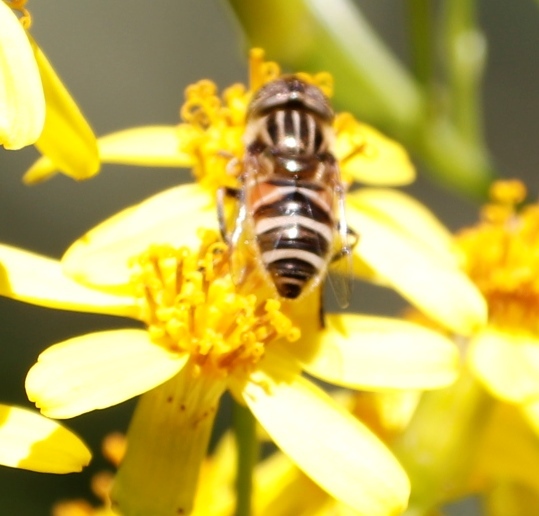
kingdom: Animalia
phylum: Arthropoda
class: Insecta
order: Diptera
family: Syrphidae
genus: Eristalinus
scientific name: Eristalinus barclayi
